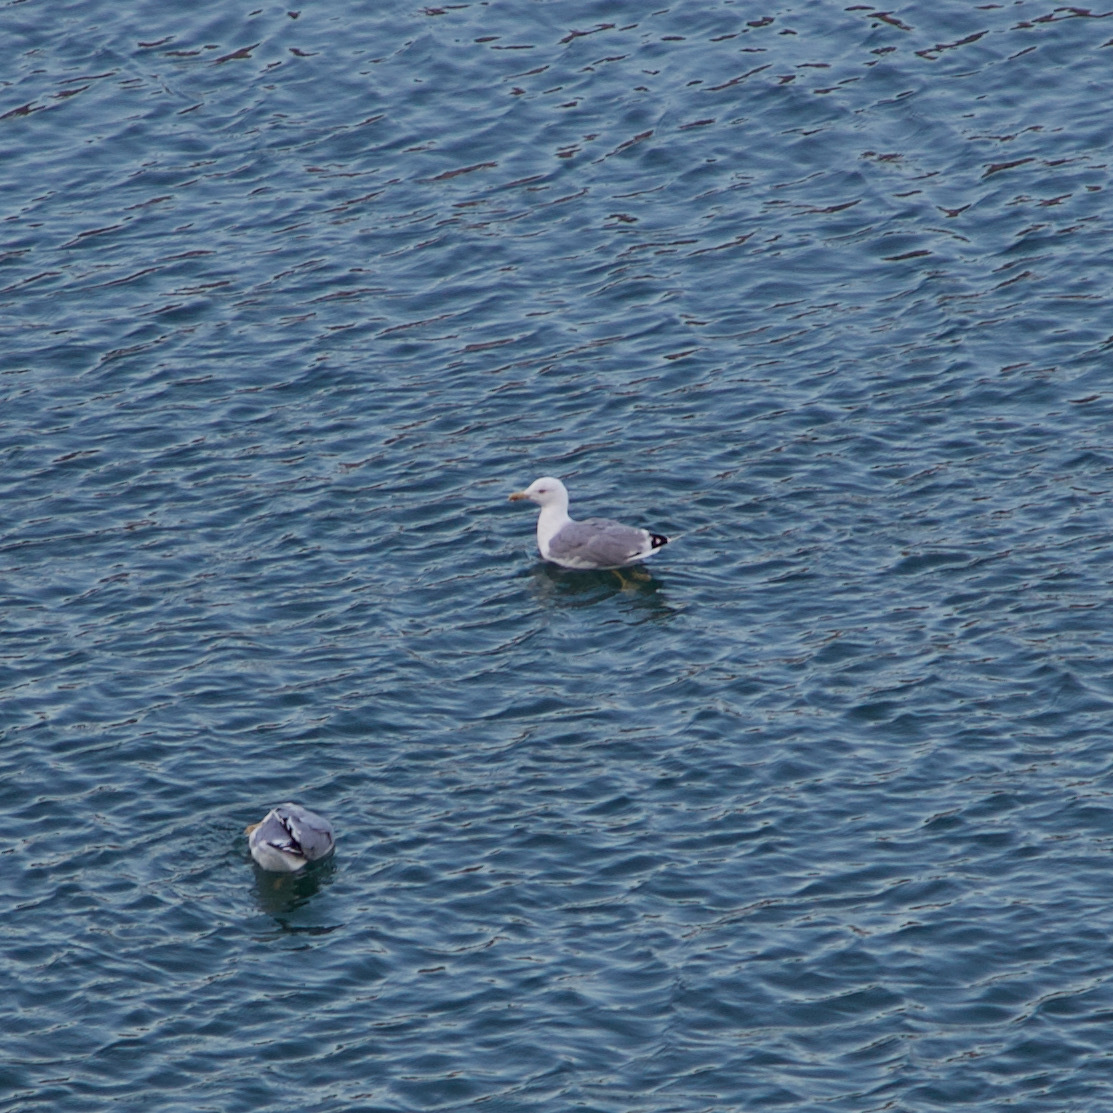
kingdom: Animalia
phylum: Chordata
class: Aves
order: Charadriiformes
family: Laridae
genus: Larus
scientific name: Larus michahellis
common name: Yellow-legged gull
